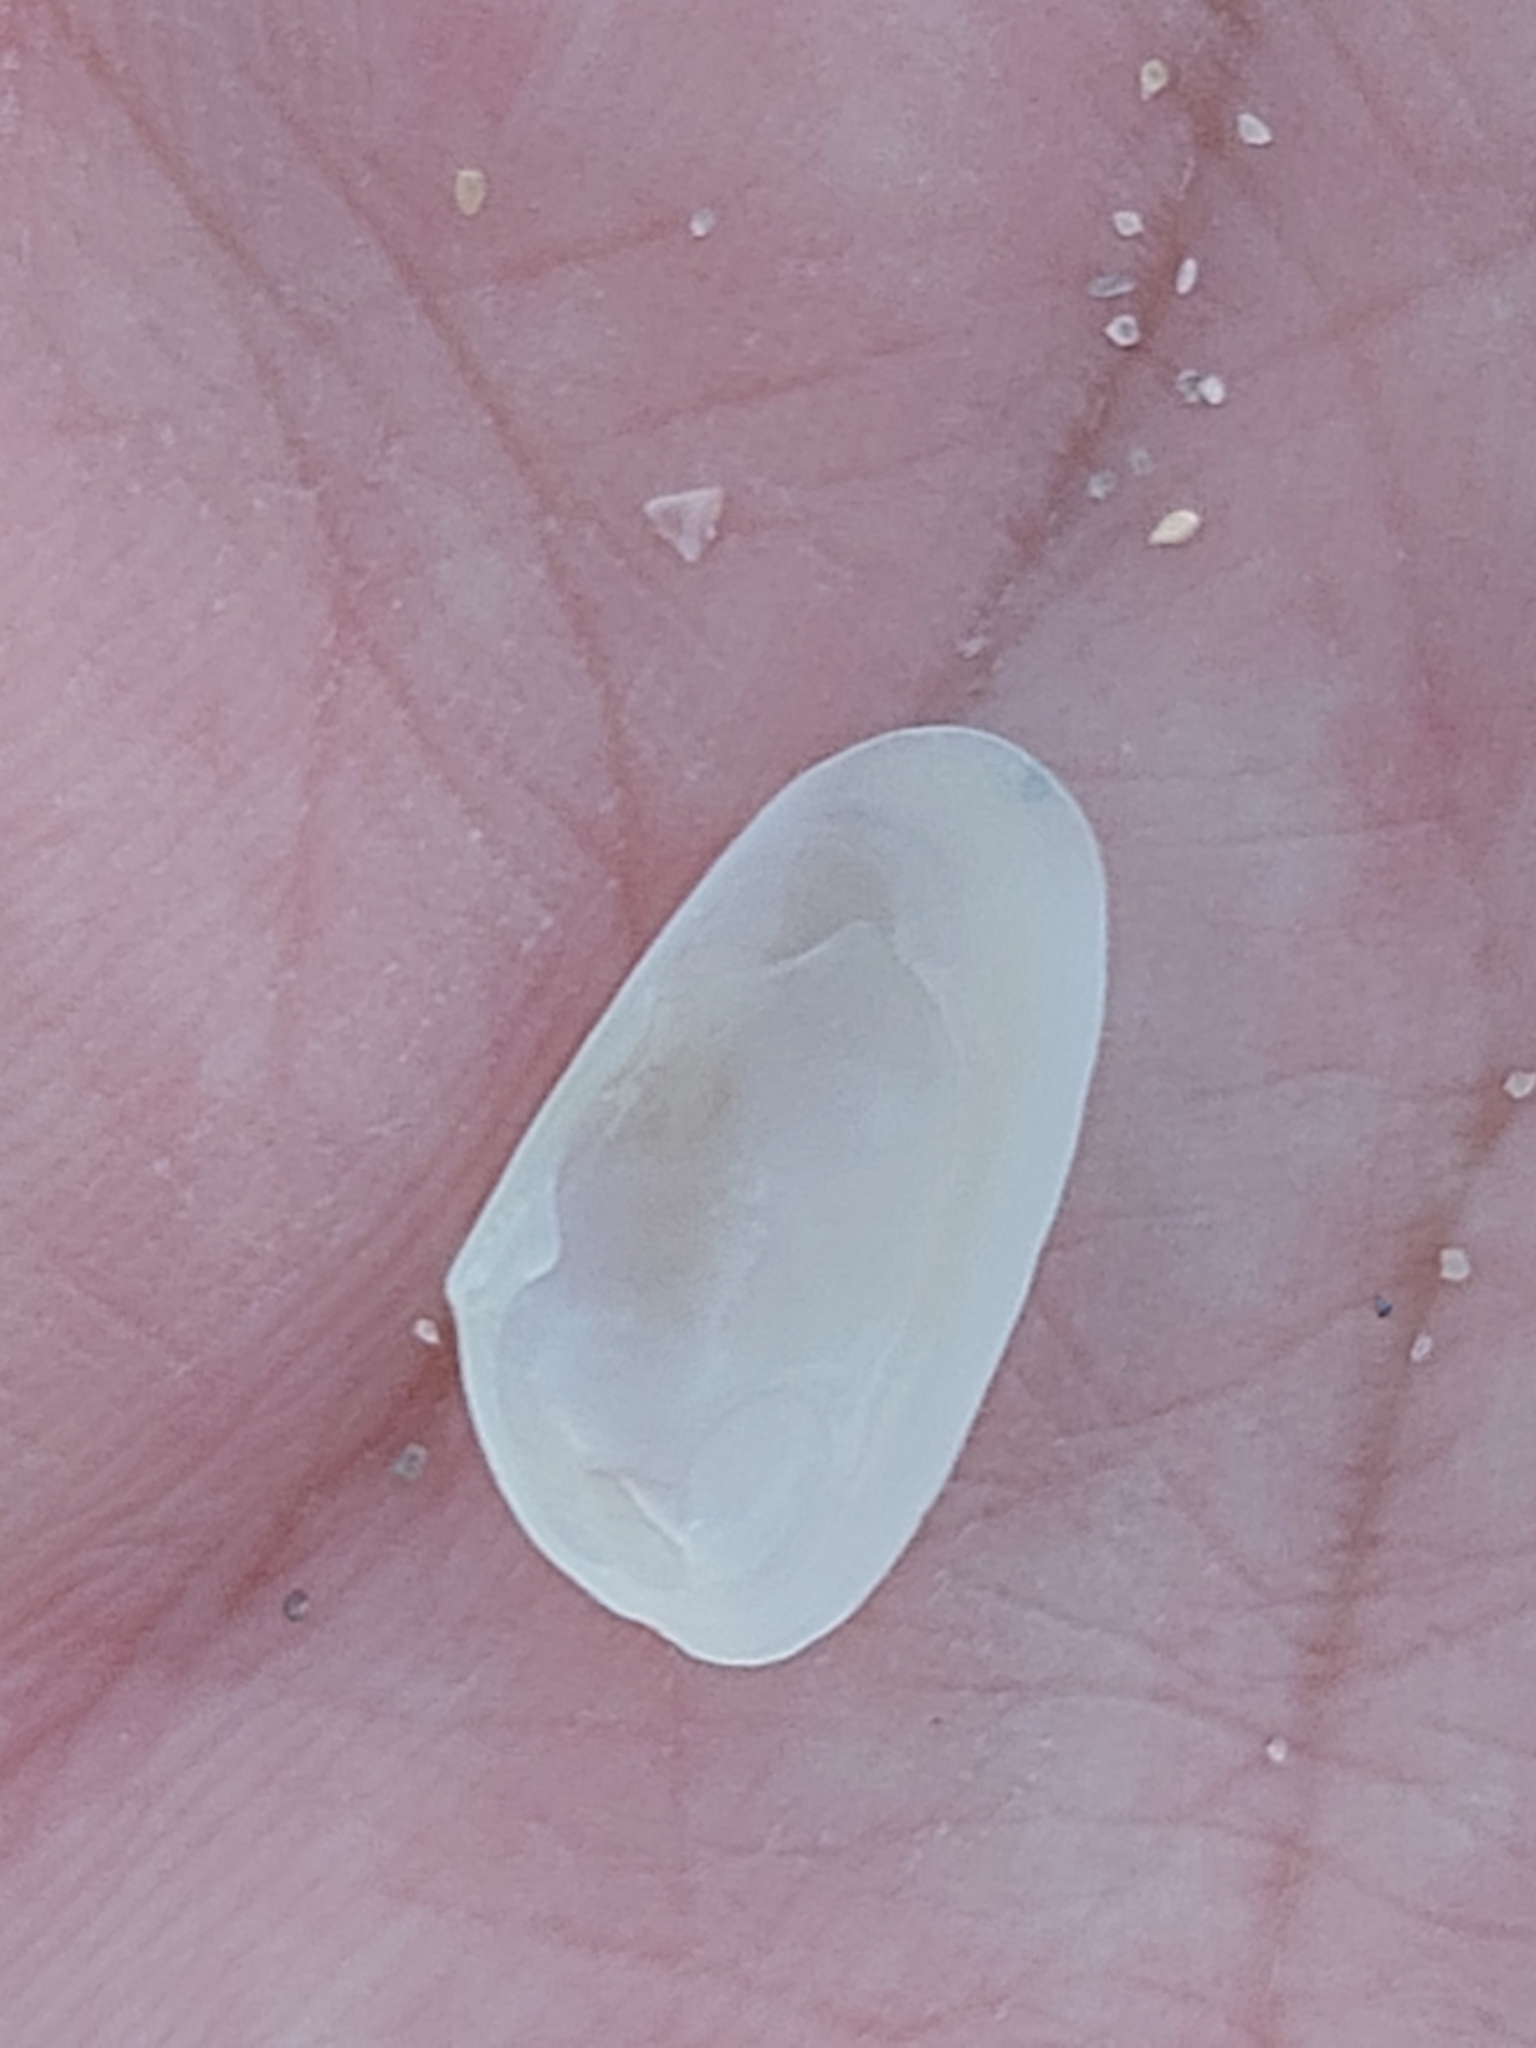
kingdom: Animalia
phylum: Mollusca
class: Bivalvia
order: Venerida
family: Mesodesmatidae
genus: Paphies
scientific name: Paphies angusta
